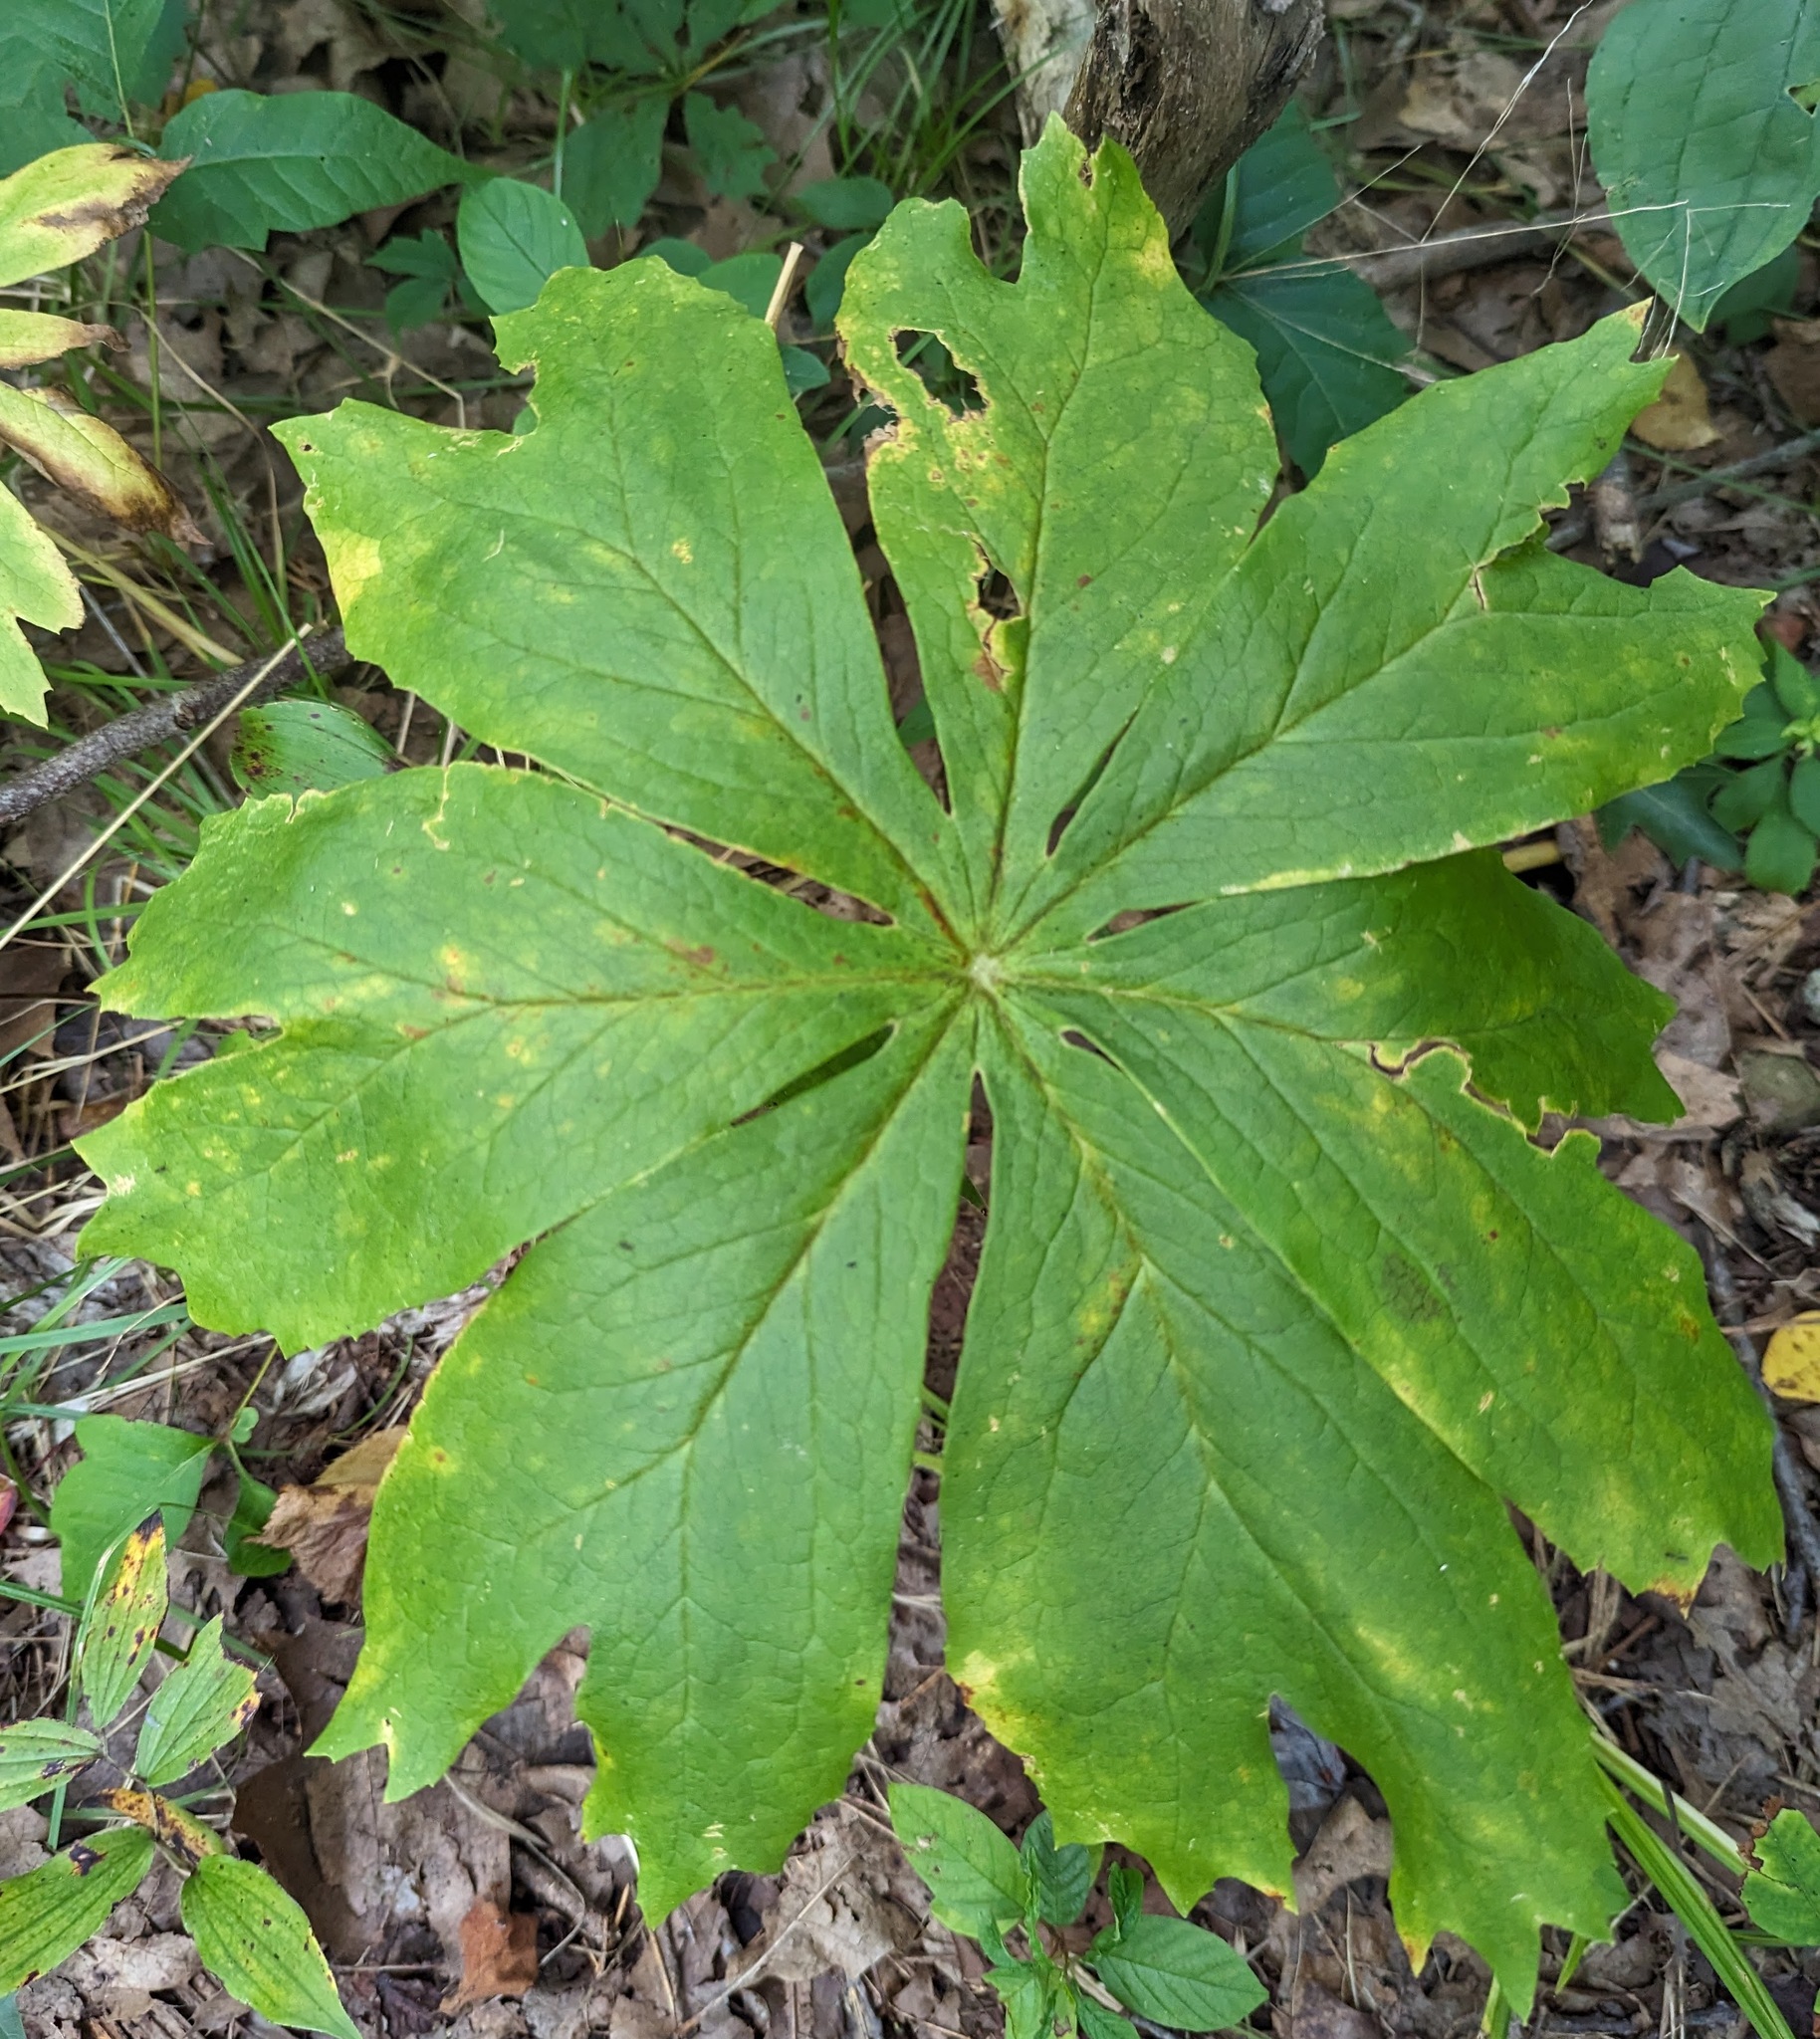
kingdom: Plantae
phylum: Tracheophyta
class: Magnoliopsida
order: Ranunculales
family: Berberidaceae
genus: Podophyllum
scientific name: Podophyllum peltatum
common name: Wild mandrake
